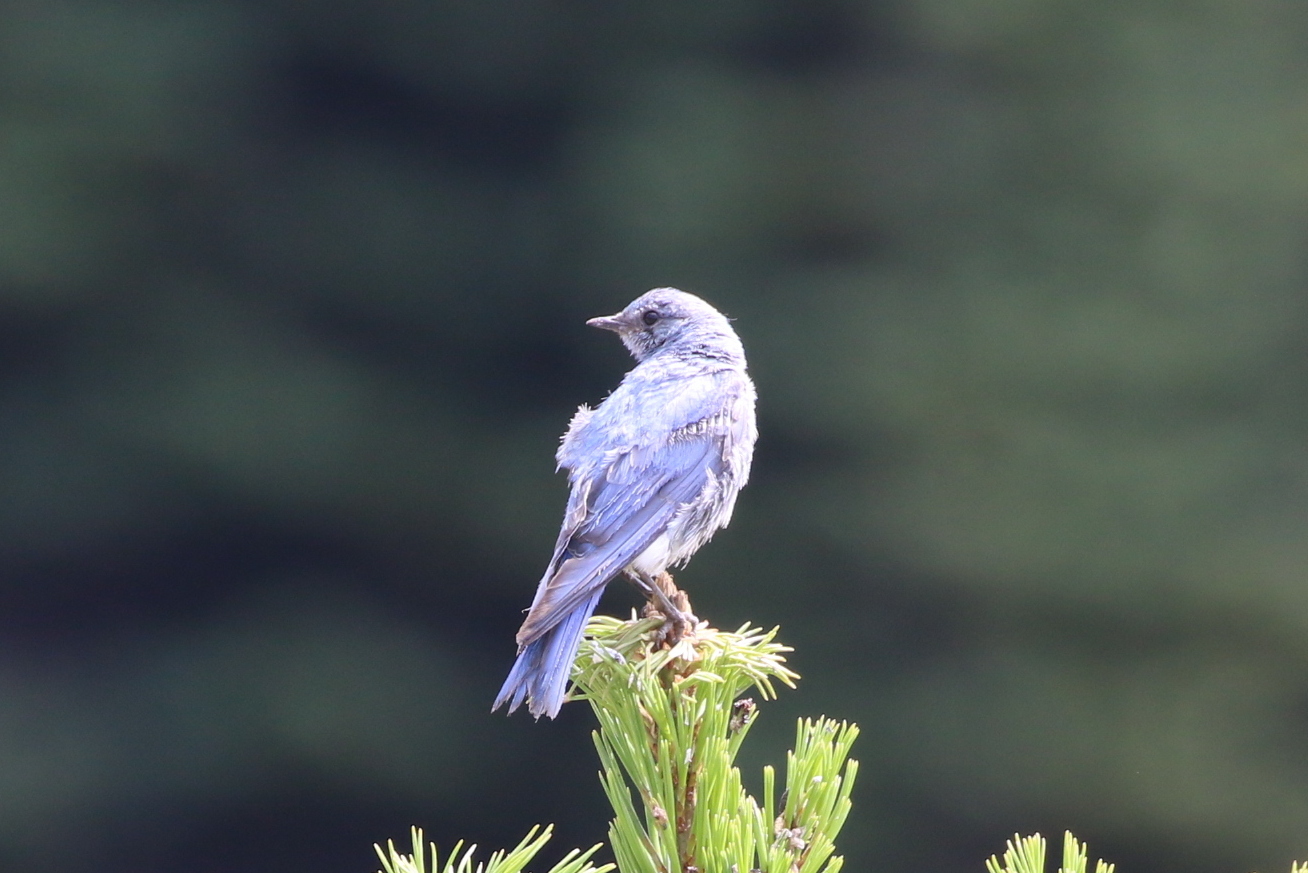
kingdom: Animalia
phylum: Chordata
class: Aves
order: Passeriformes
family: Turdidae
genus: Sialia
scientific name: Sialia currucoides
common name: Mountain bluebird
